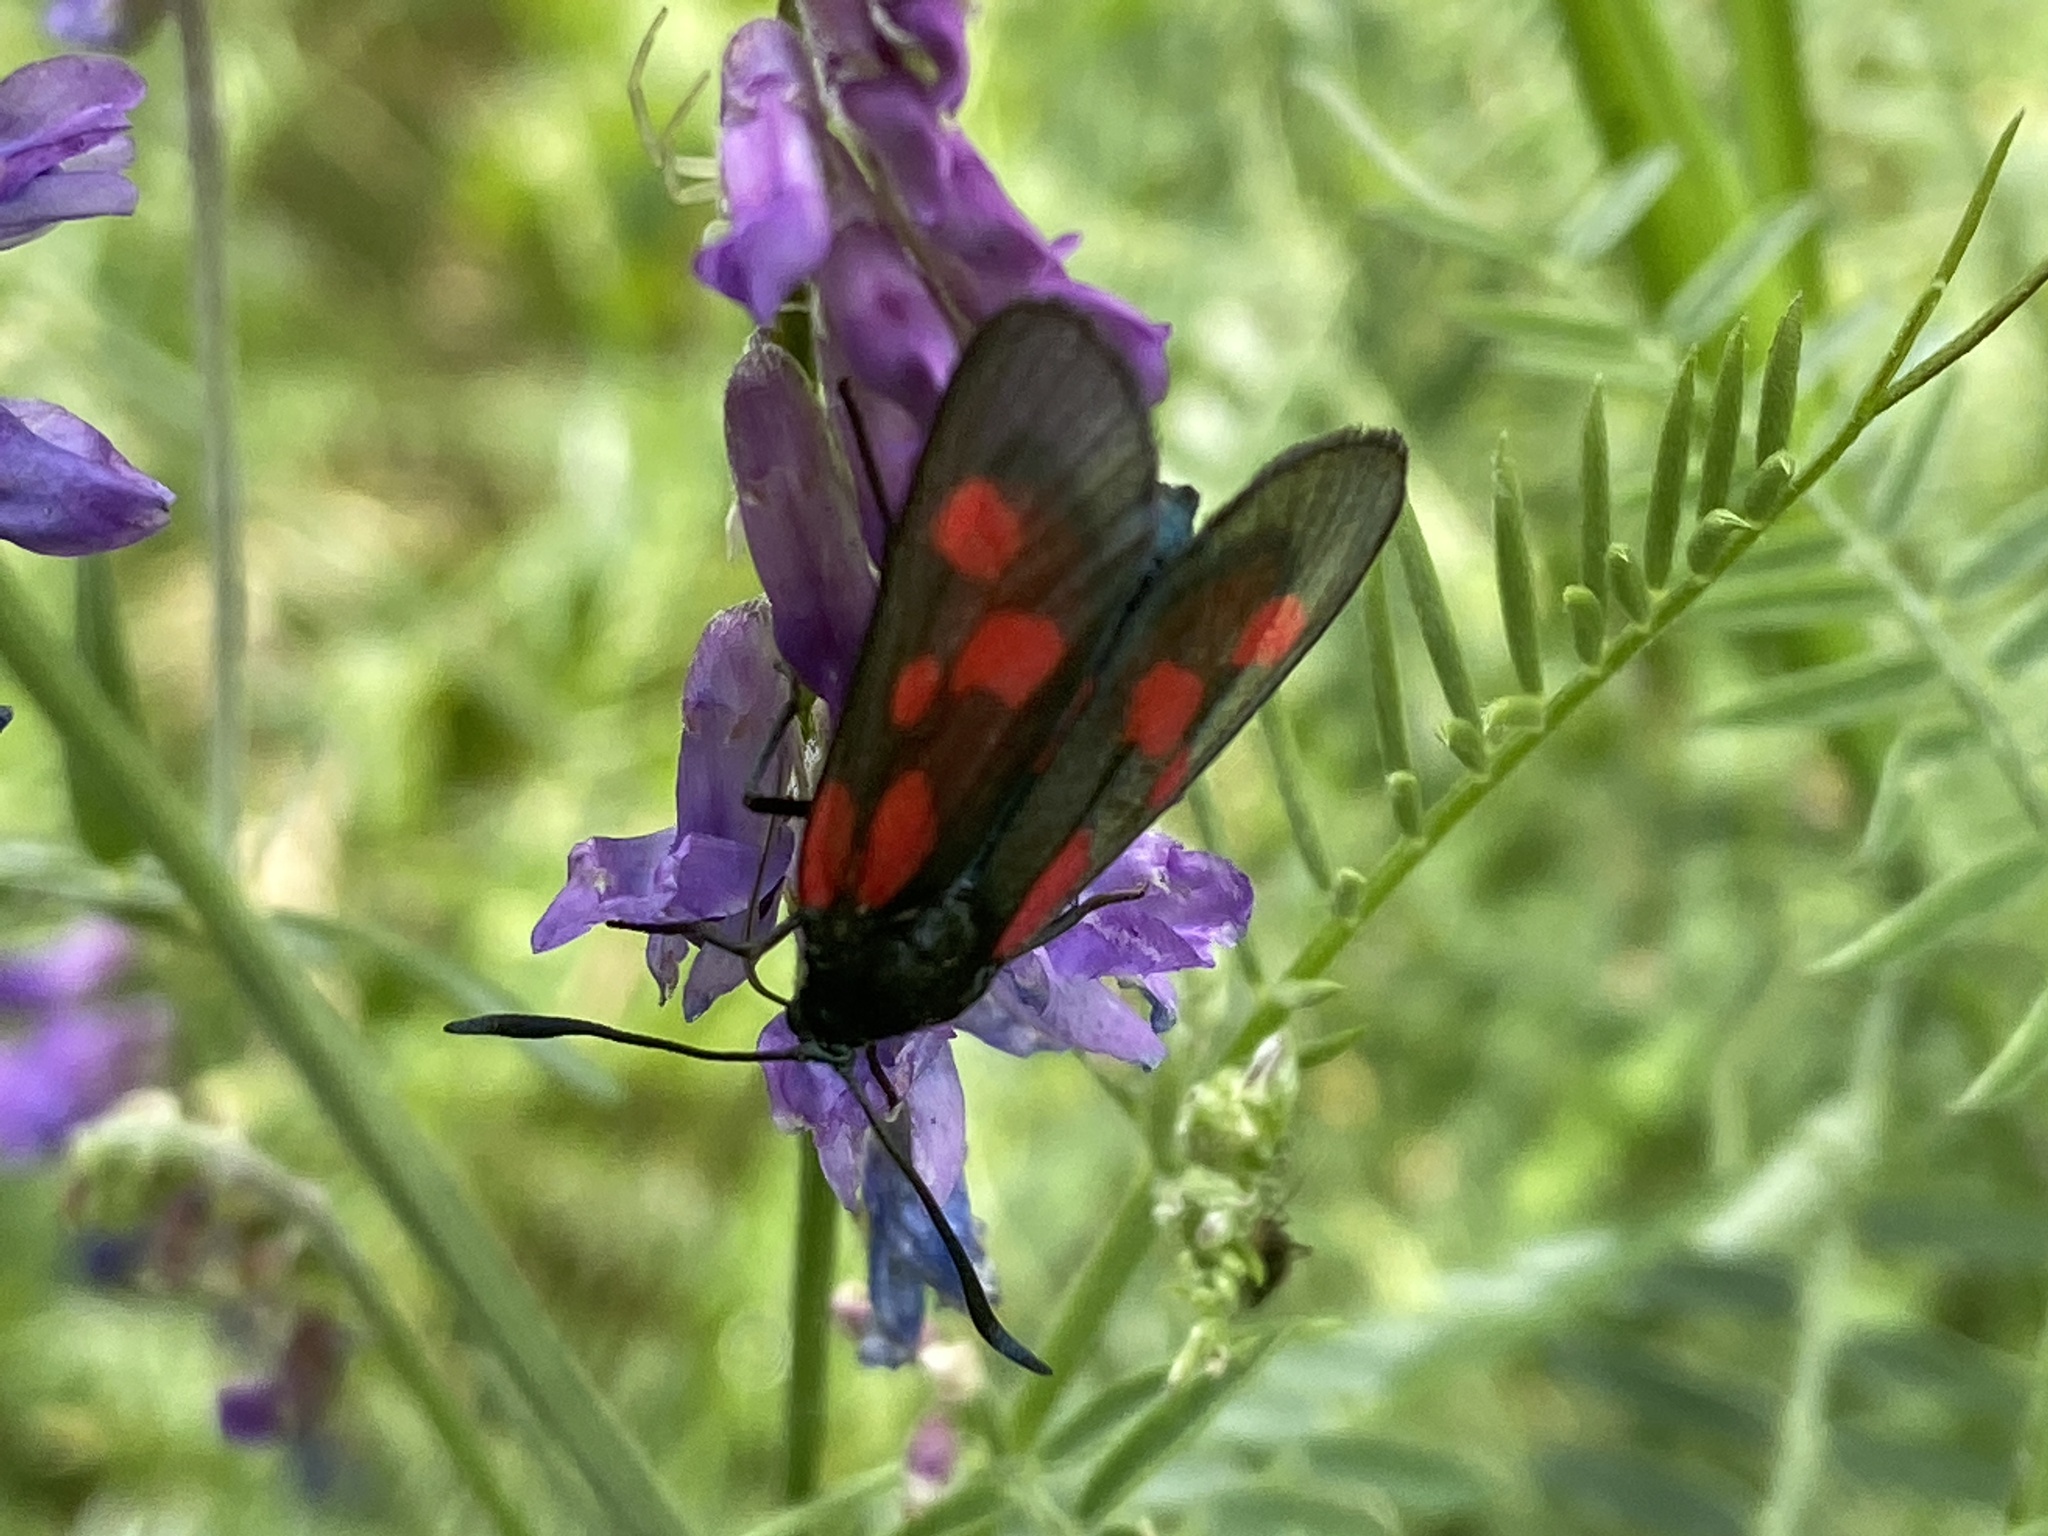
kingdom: Animalia
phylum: Arthropoda
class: Insecta
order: Lepidoptera
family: Zygaenidae
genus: Zygaena
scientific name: Zygaena viciae
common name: New forest burnet
